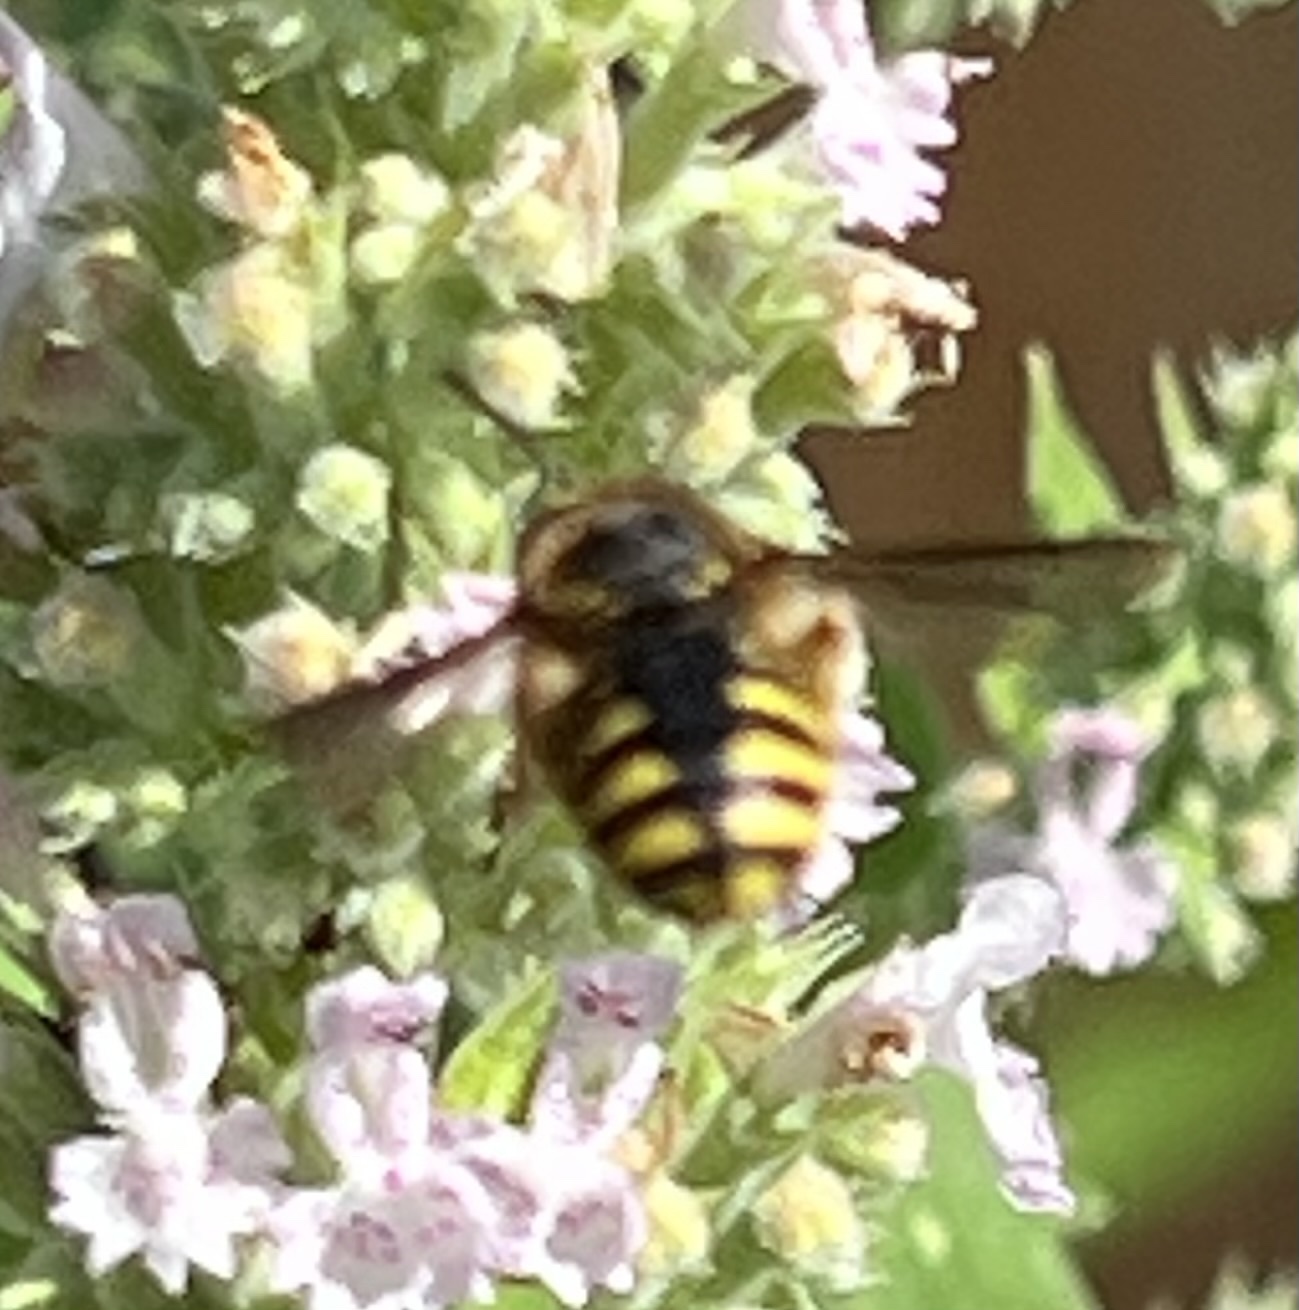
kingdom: Animalia
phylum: Arthropoda
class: Insecta
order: Hymenoptera
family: Megachilidae
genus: Anthidium
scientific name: Anthidium manicatum
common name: Wool carder bee
